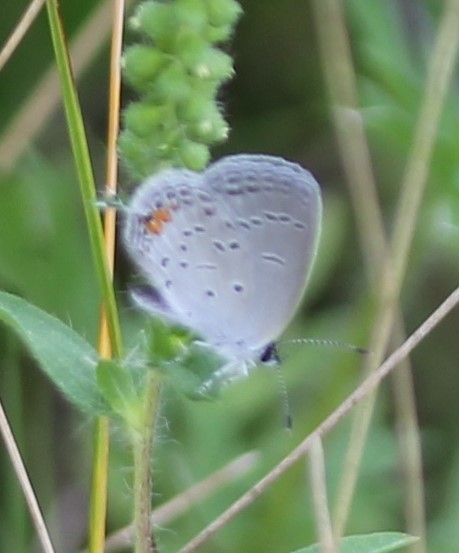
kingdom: Animalia
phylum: Arthropoda
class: Insecta
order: Lepidoptera
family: Lycaenidae
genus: Elkalyce
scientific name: Elkalyce comyntas
